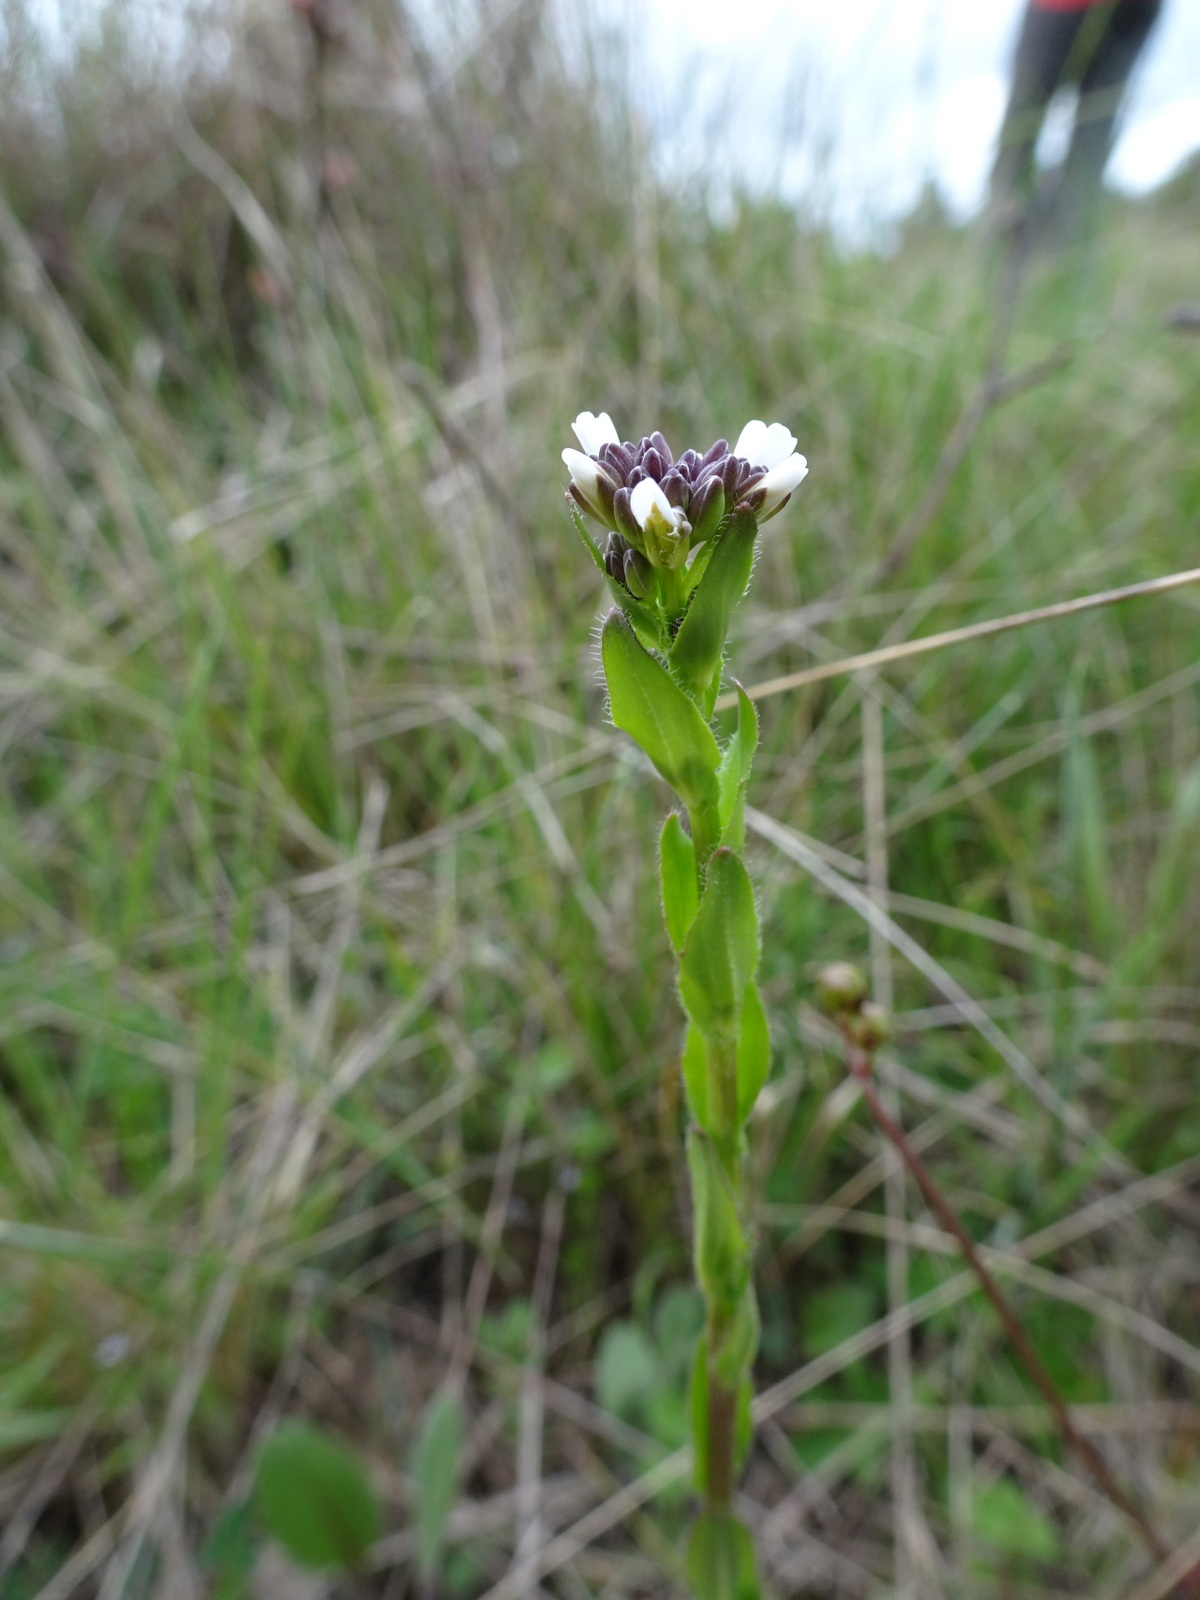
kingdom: Plantae
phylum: Tracheophyta
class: Magnoliopsida
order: Brassicales
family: Brassicaceae
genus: Arabis
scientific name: Arabis hirsuta
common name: Hairy rock-cress
